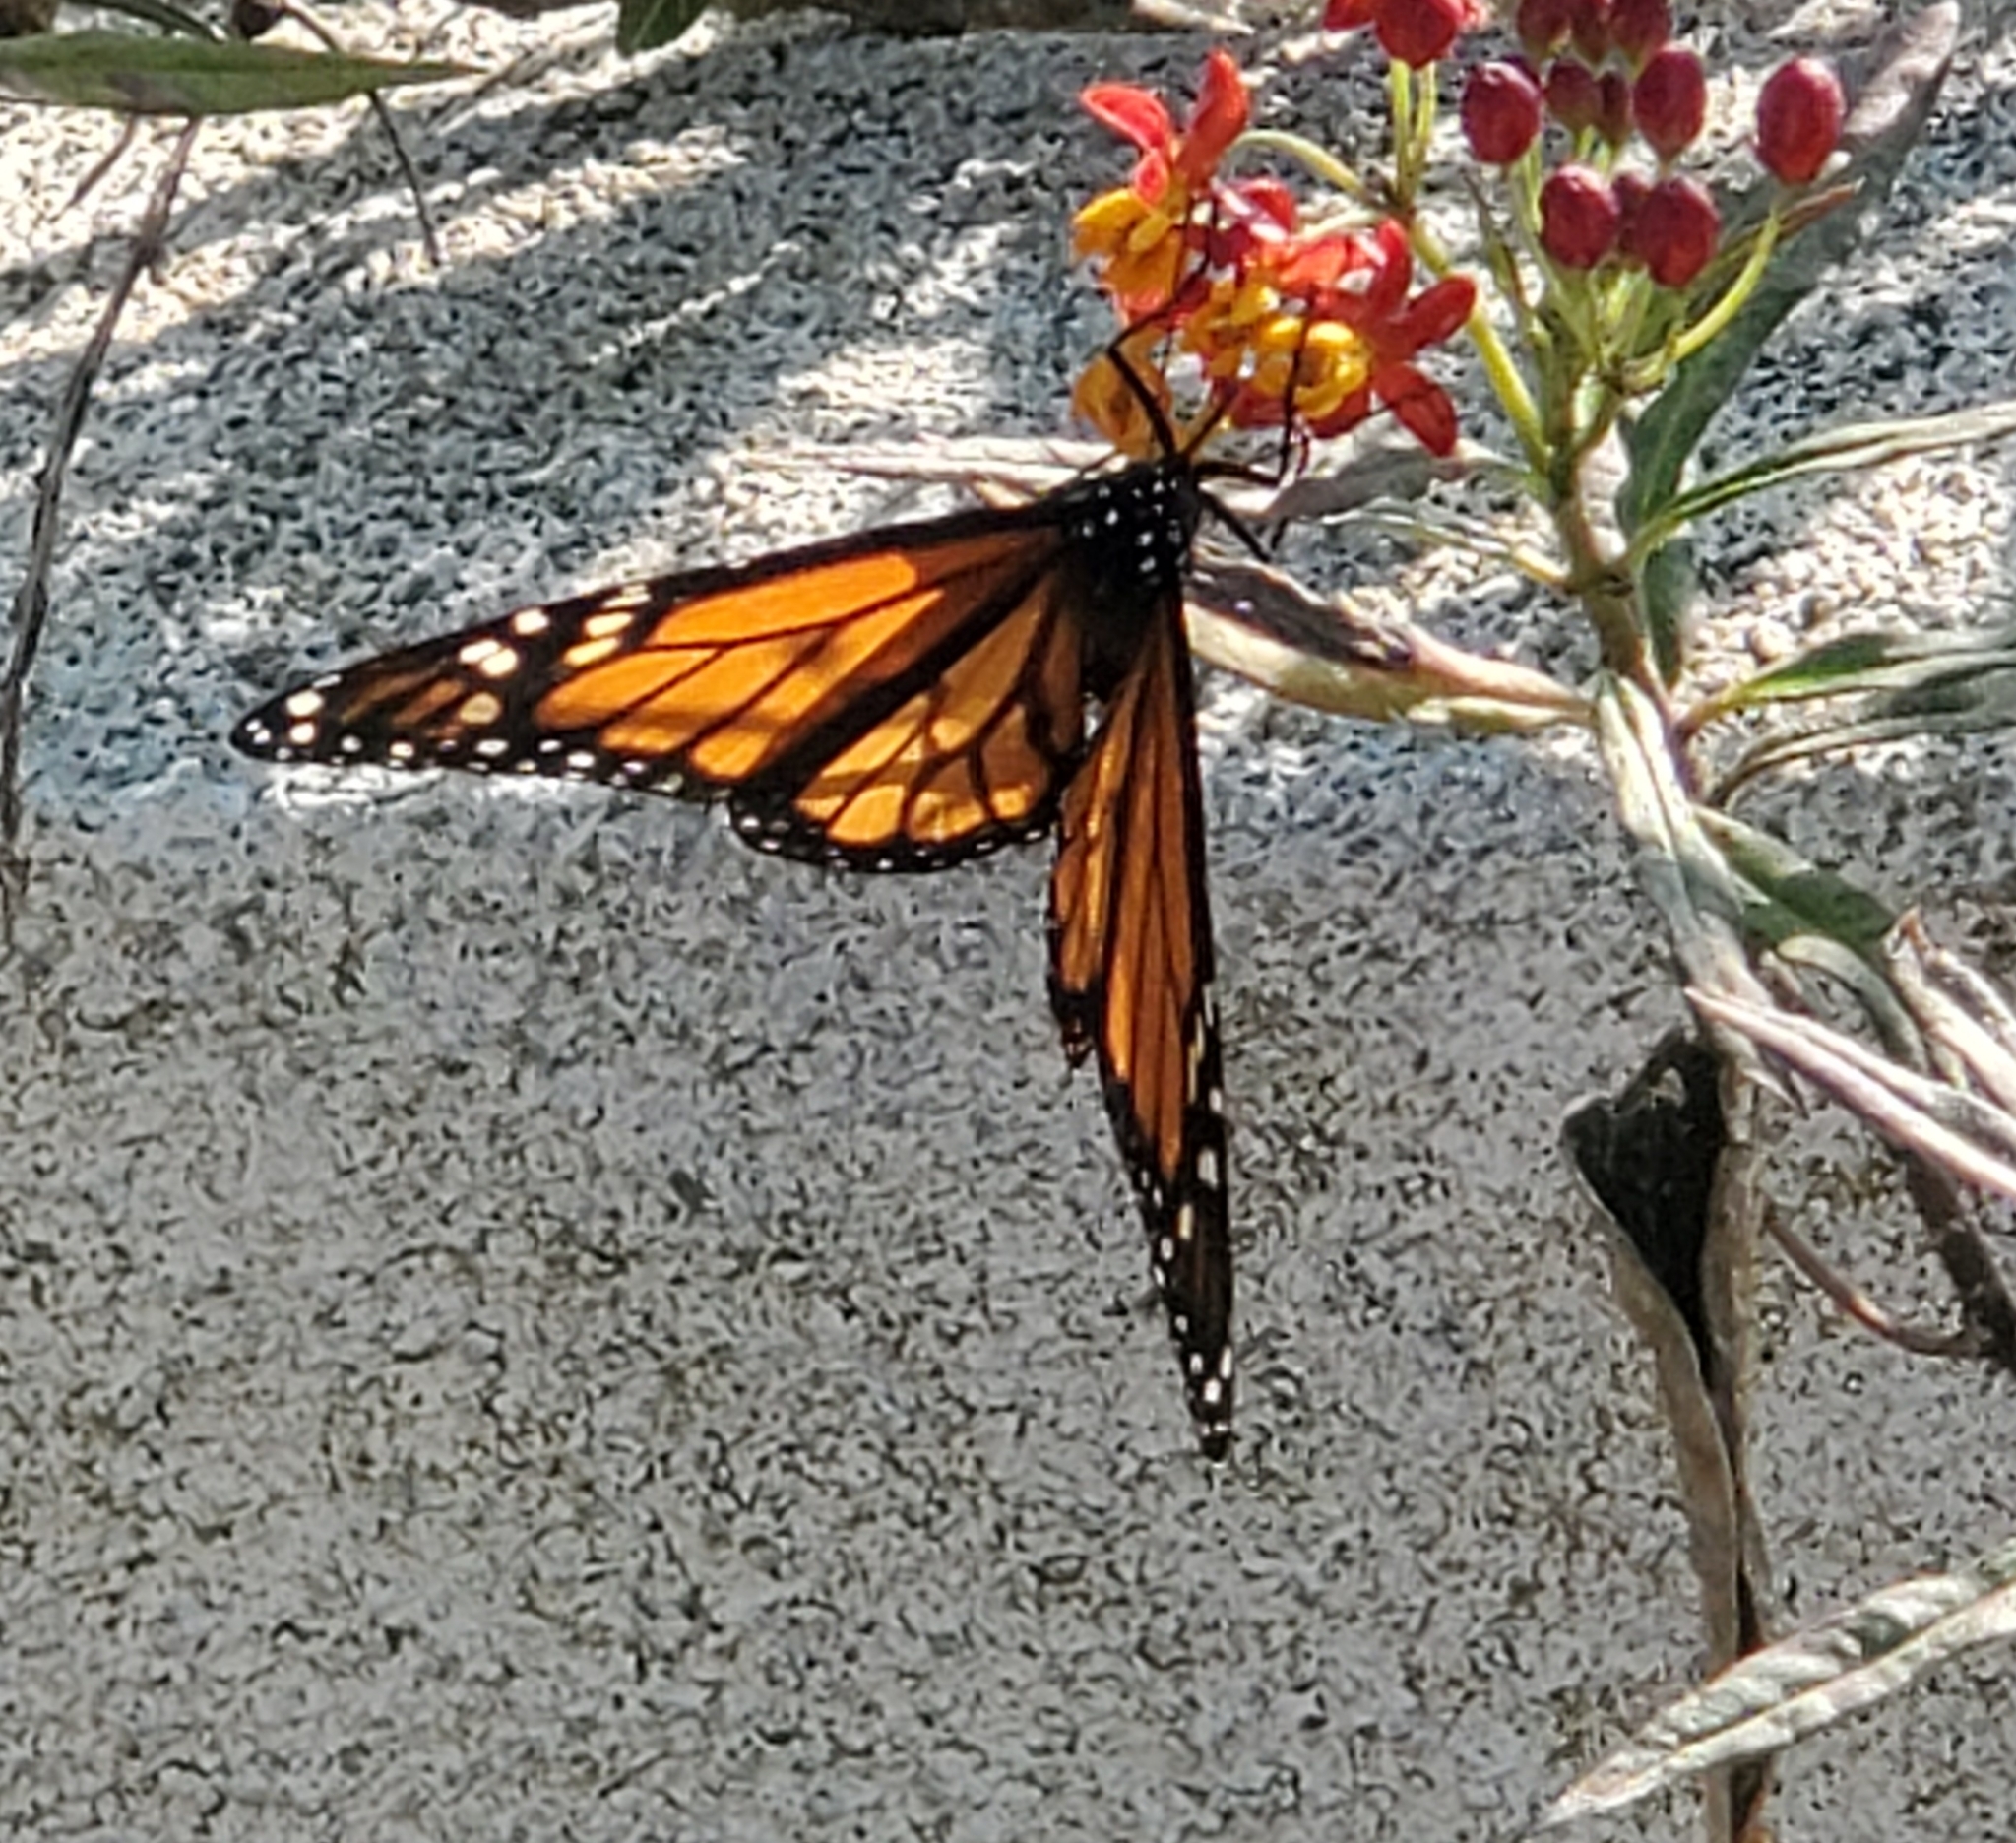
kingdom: Animalia
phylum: Arthropoda
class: Insecta
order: Lepidoptera
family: Nymphalidae
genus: Danaus
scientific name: Danaus plexippus
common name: Monarch
